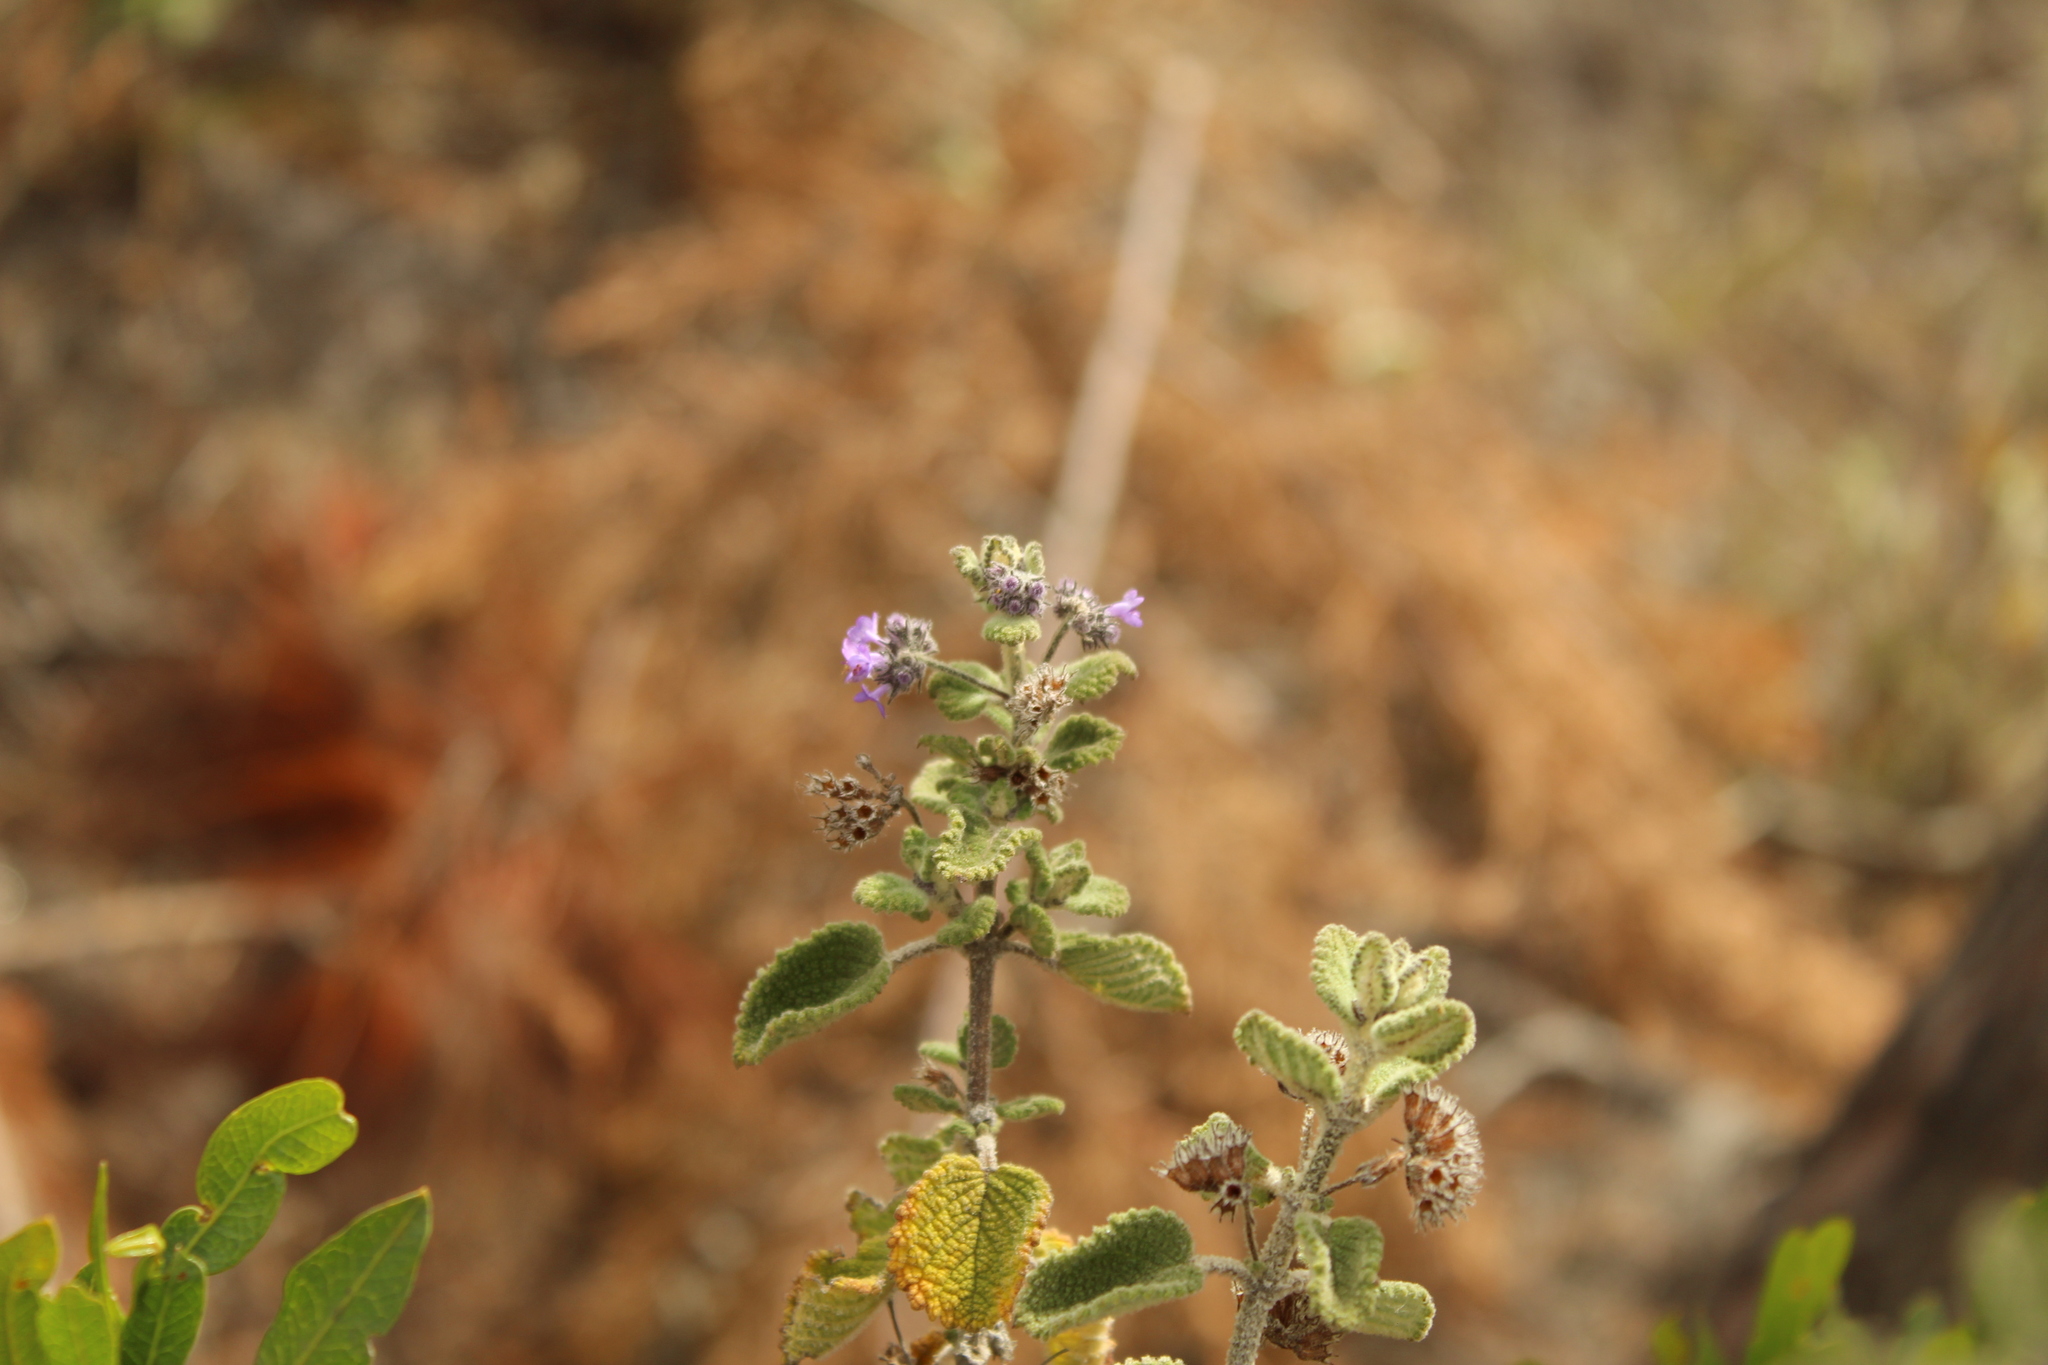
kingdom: Plantae
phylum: Tracheophyta
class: Magnoliopsida
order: Lamiales
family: Lamiaceae
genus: Mesosphaerum
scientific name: Mesosphaerum perbullatum
